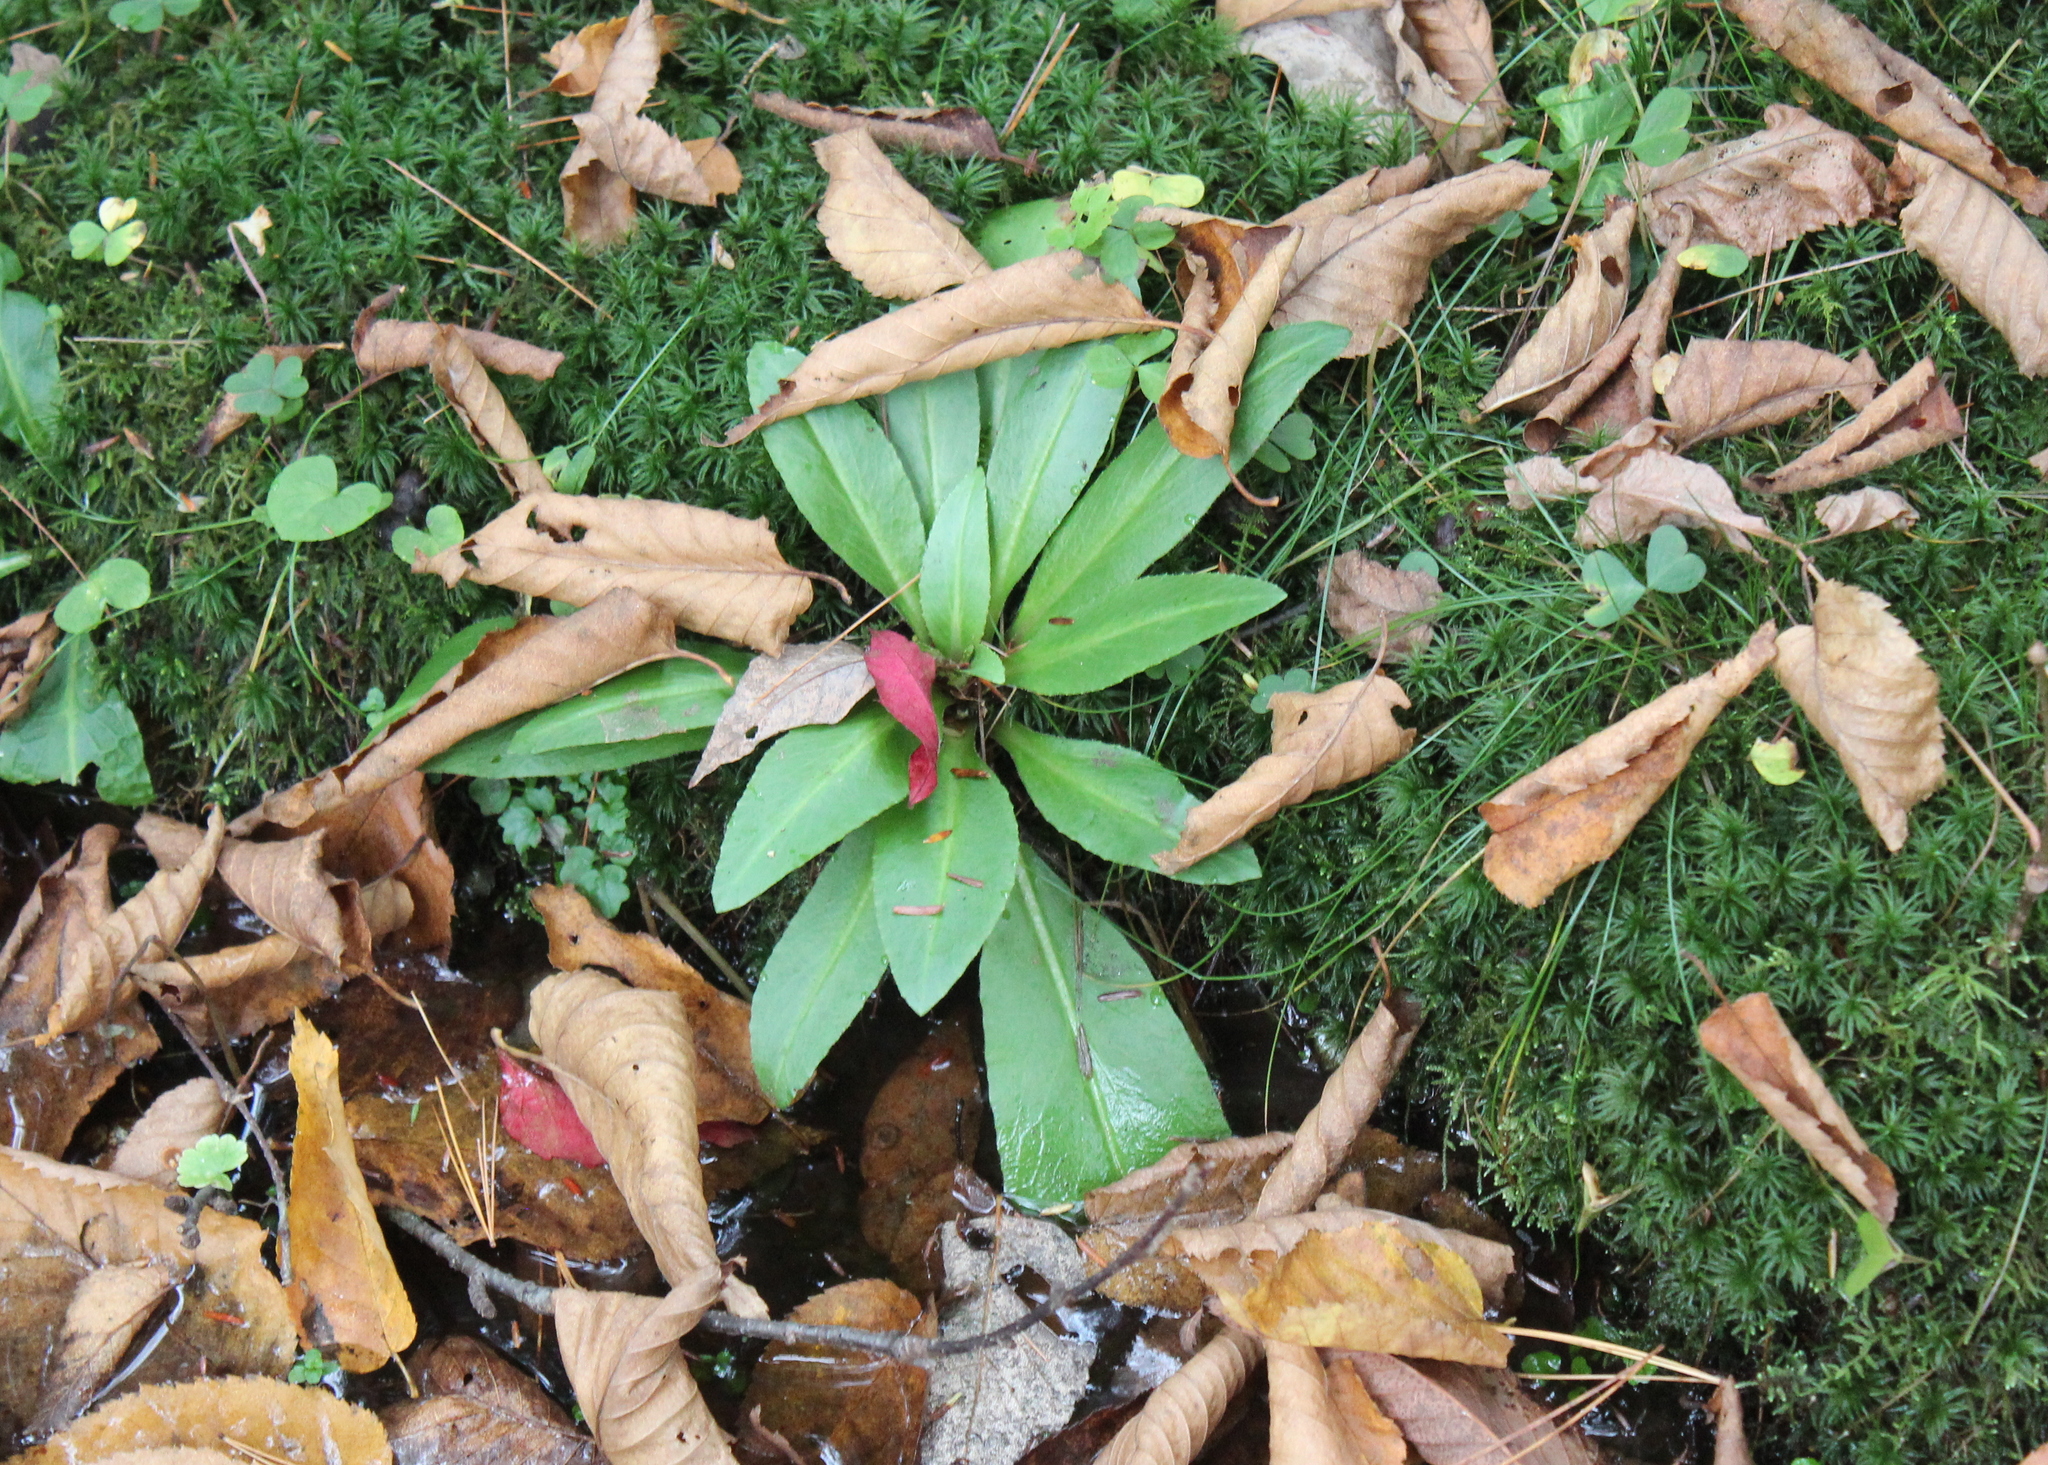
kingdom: Plantae
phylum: Tracheophyta
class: Magnoliopsida
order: Saxifragales
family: Saxifragaceae
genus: Micranthes
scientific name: Micranthes pensylvanica
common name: Marsh saxifrage
